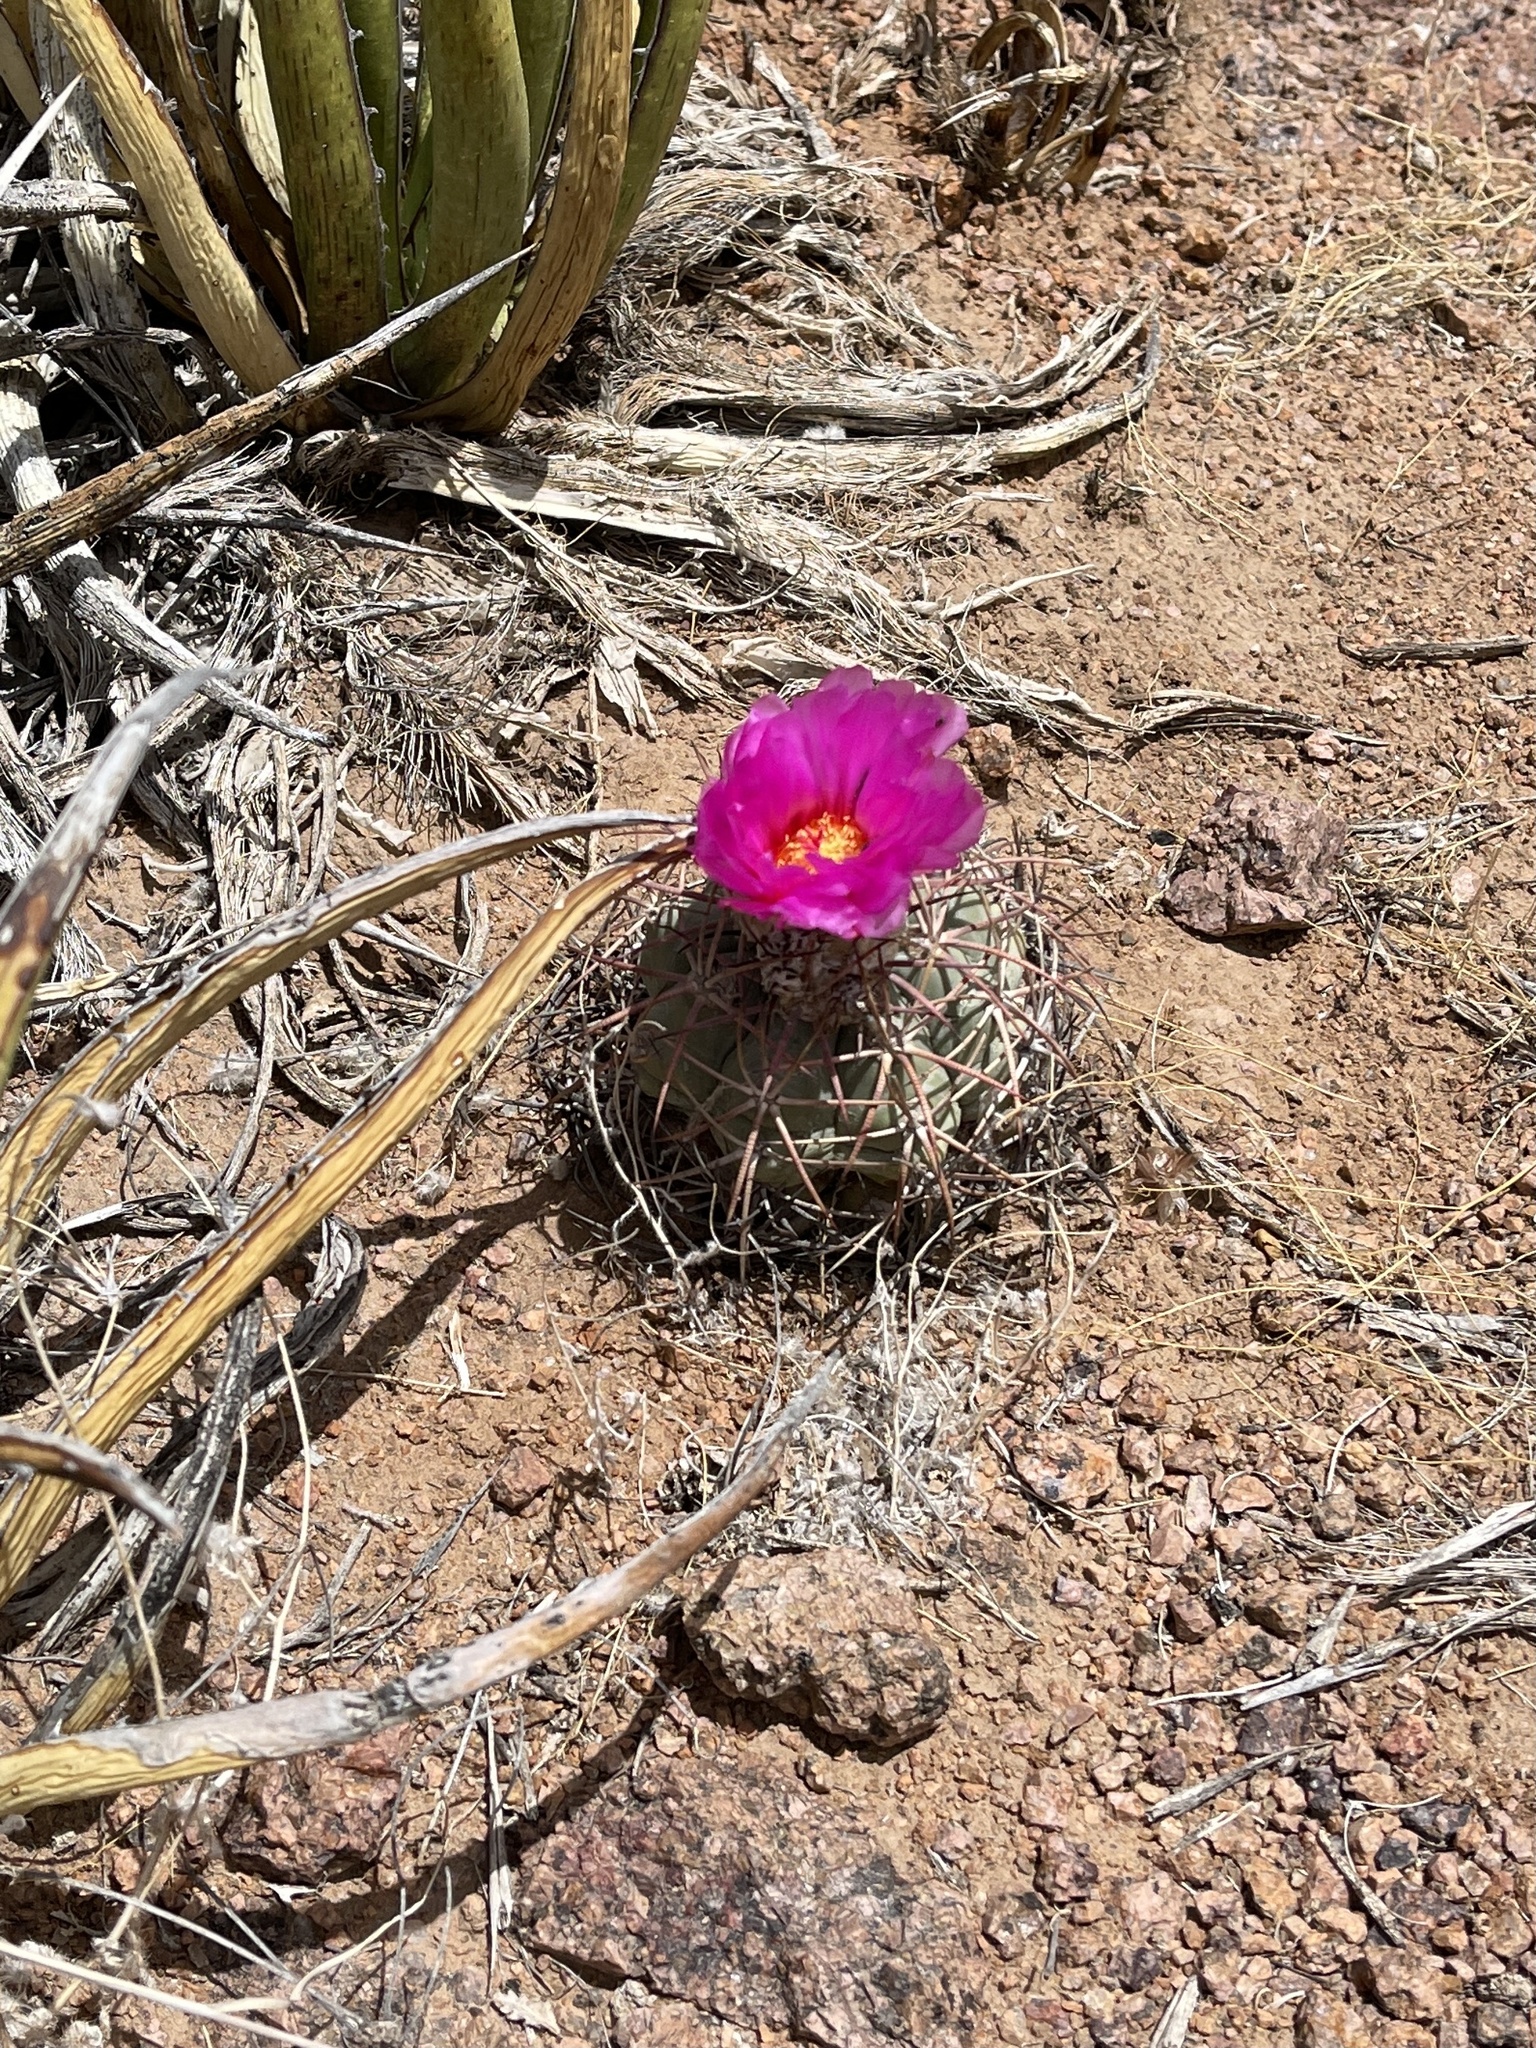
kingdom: Plantae
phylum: Tracheophyta
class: Magnoliopsida
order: Caryophyllales
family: Cactaceae
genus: Echinocactus
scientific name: Echinocactus horizonthalonius
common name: Devilshead
